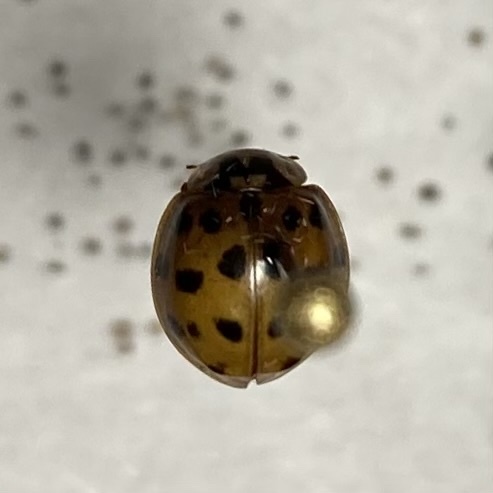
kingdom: Animalia
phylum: Arthropoda
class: Insecta
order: Coleoptera
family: Coccinellidae
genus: Harmonia
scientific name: Harmonia axyridis
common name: Harlequin ladybird
